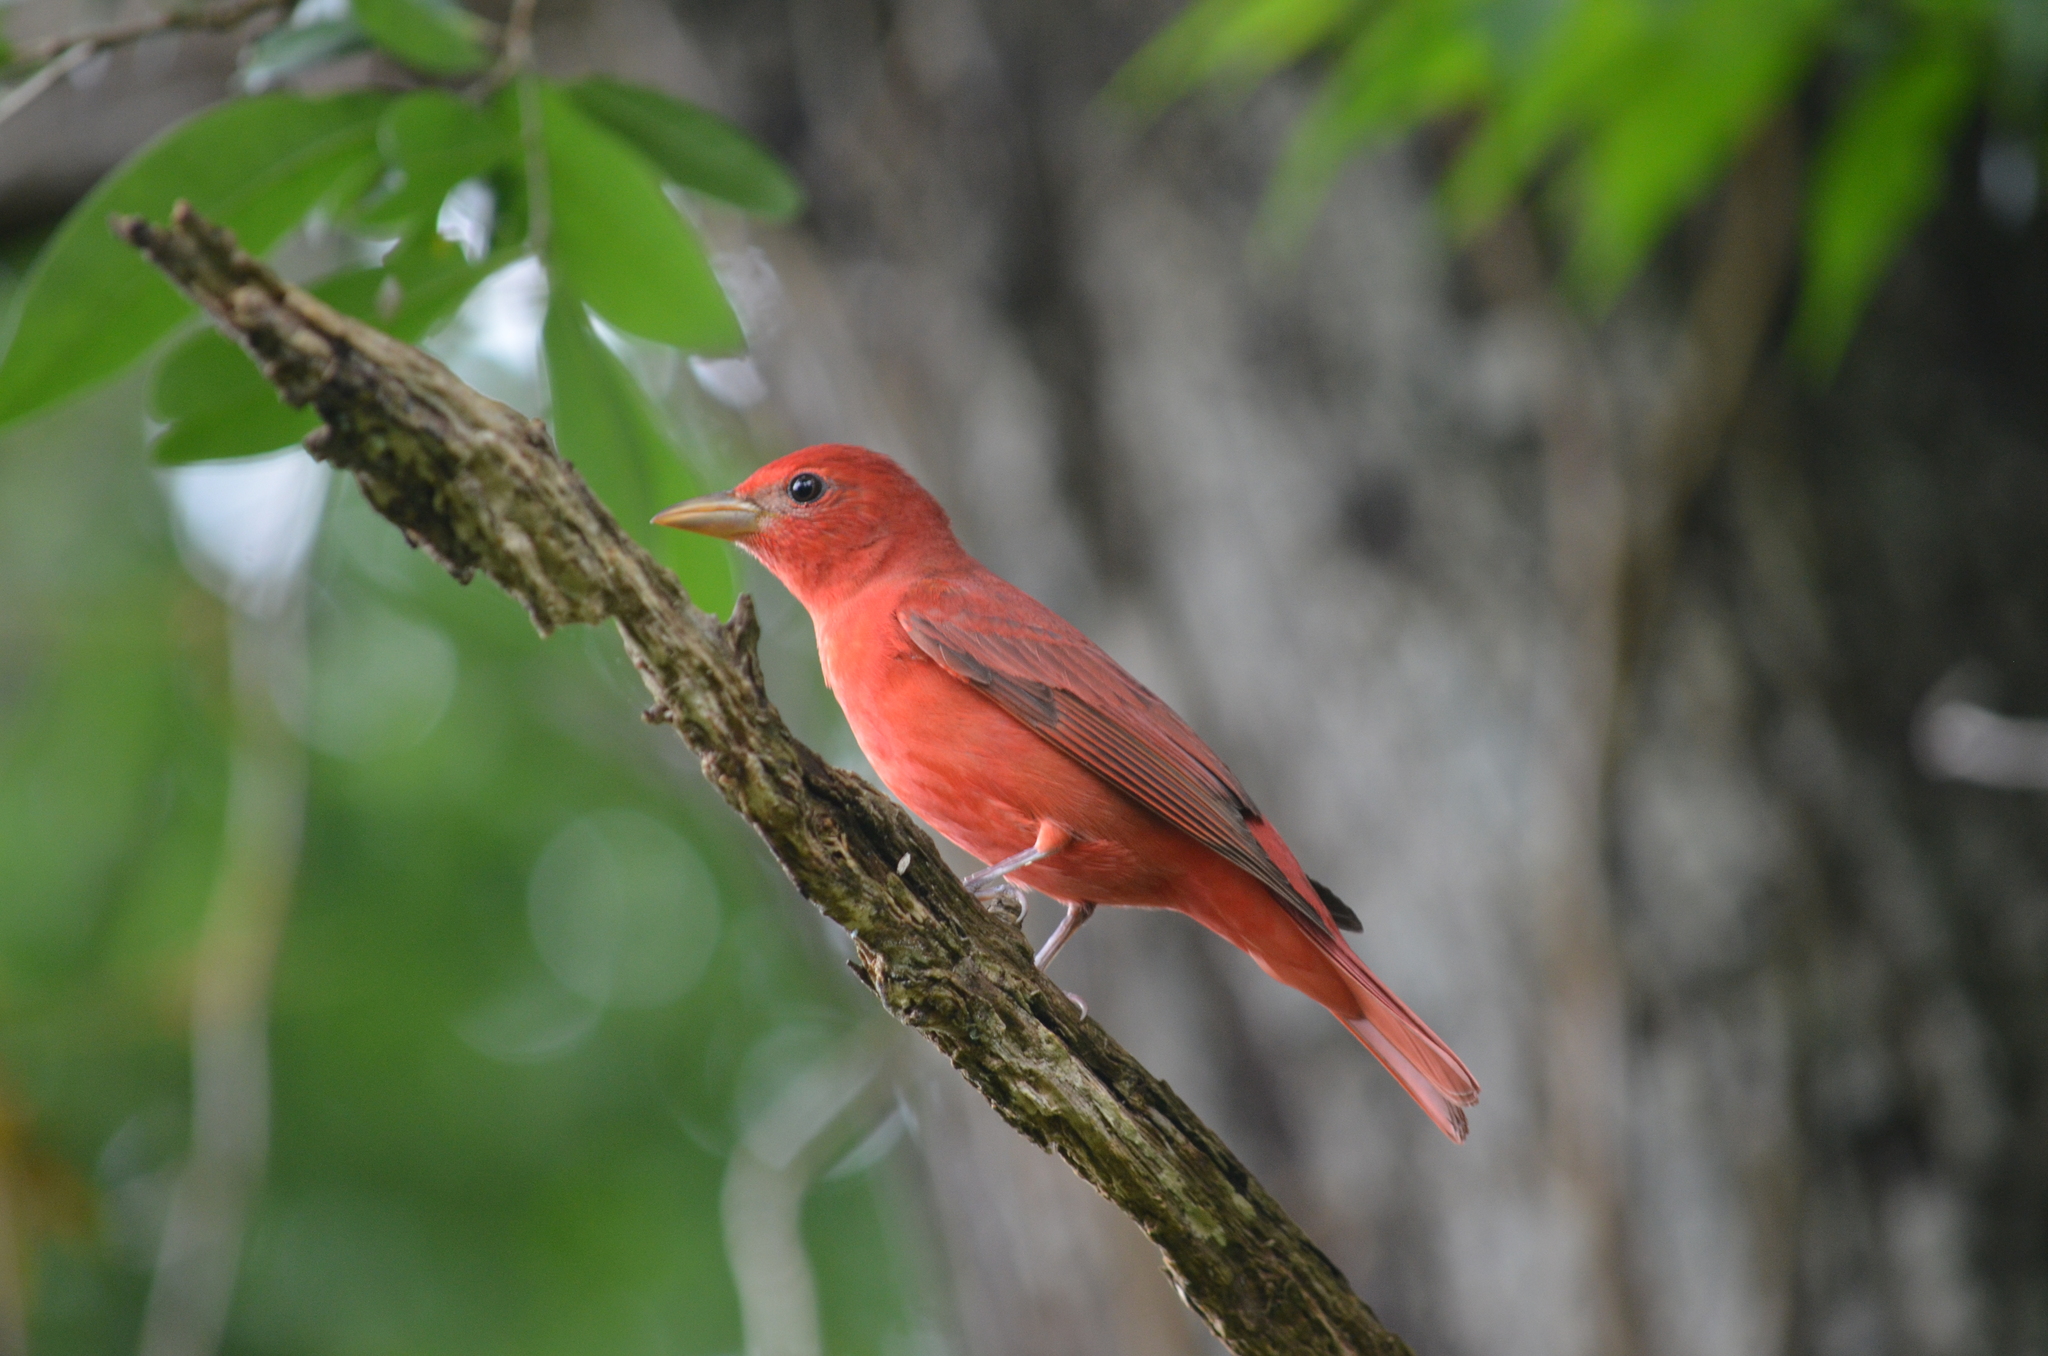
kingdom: Animalia
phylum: Chordata
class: Aves
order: Passeriformes
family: Cardinalidae
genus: Piranga
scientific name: Piranga rubra
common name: Summer tanager
